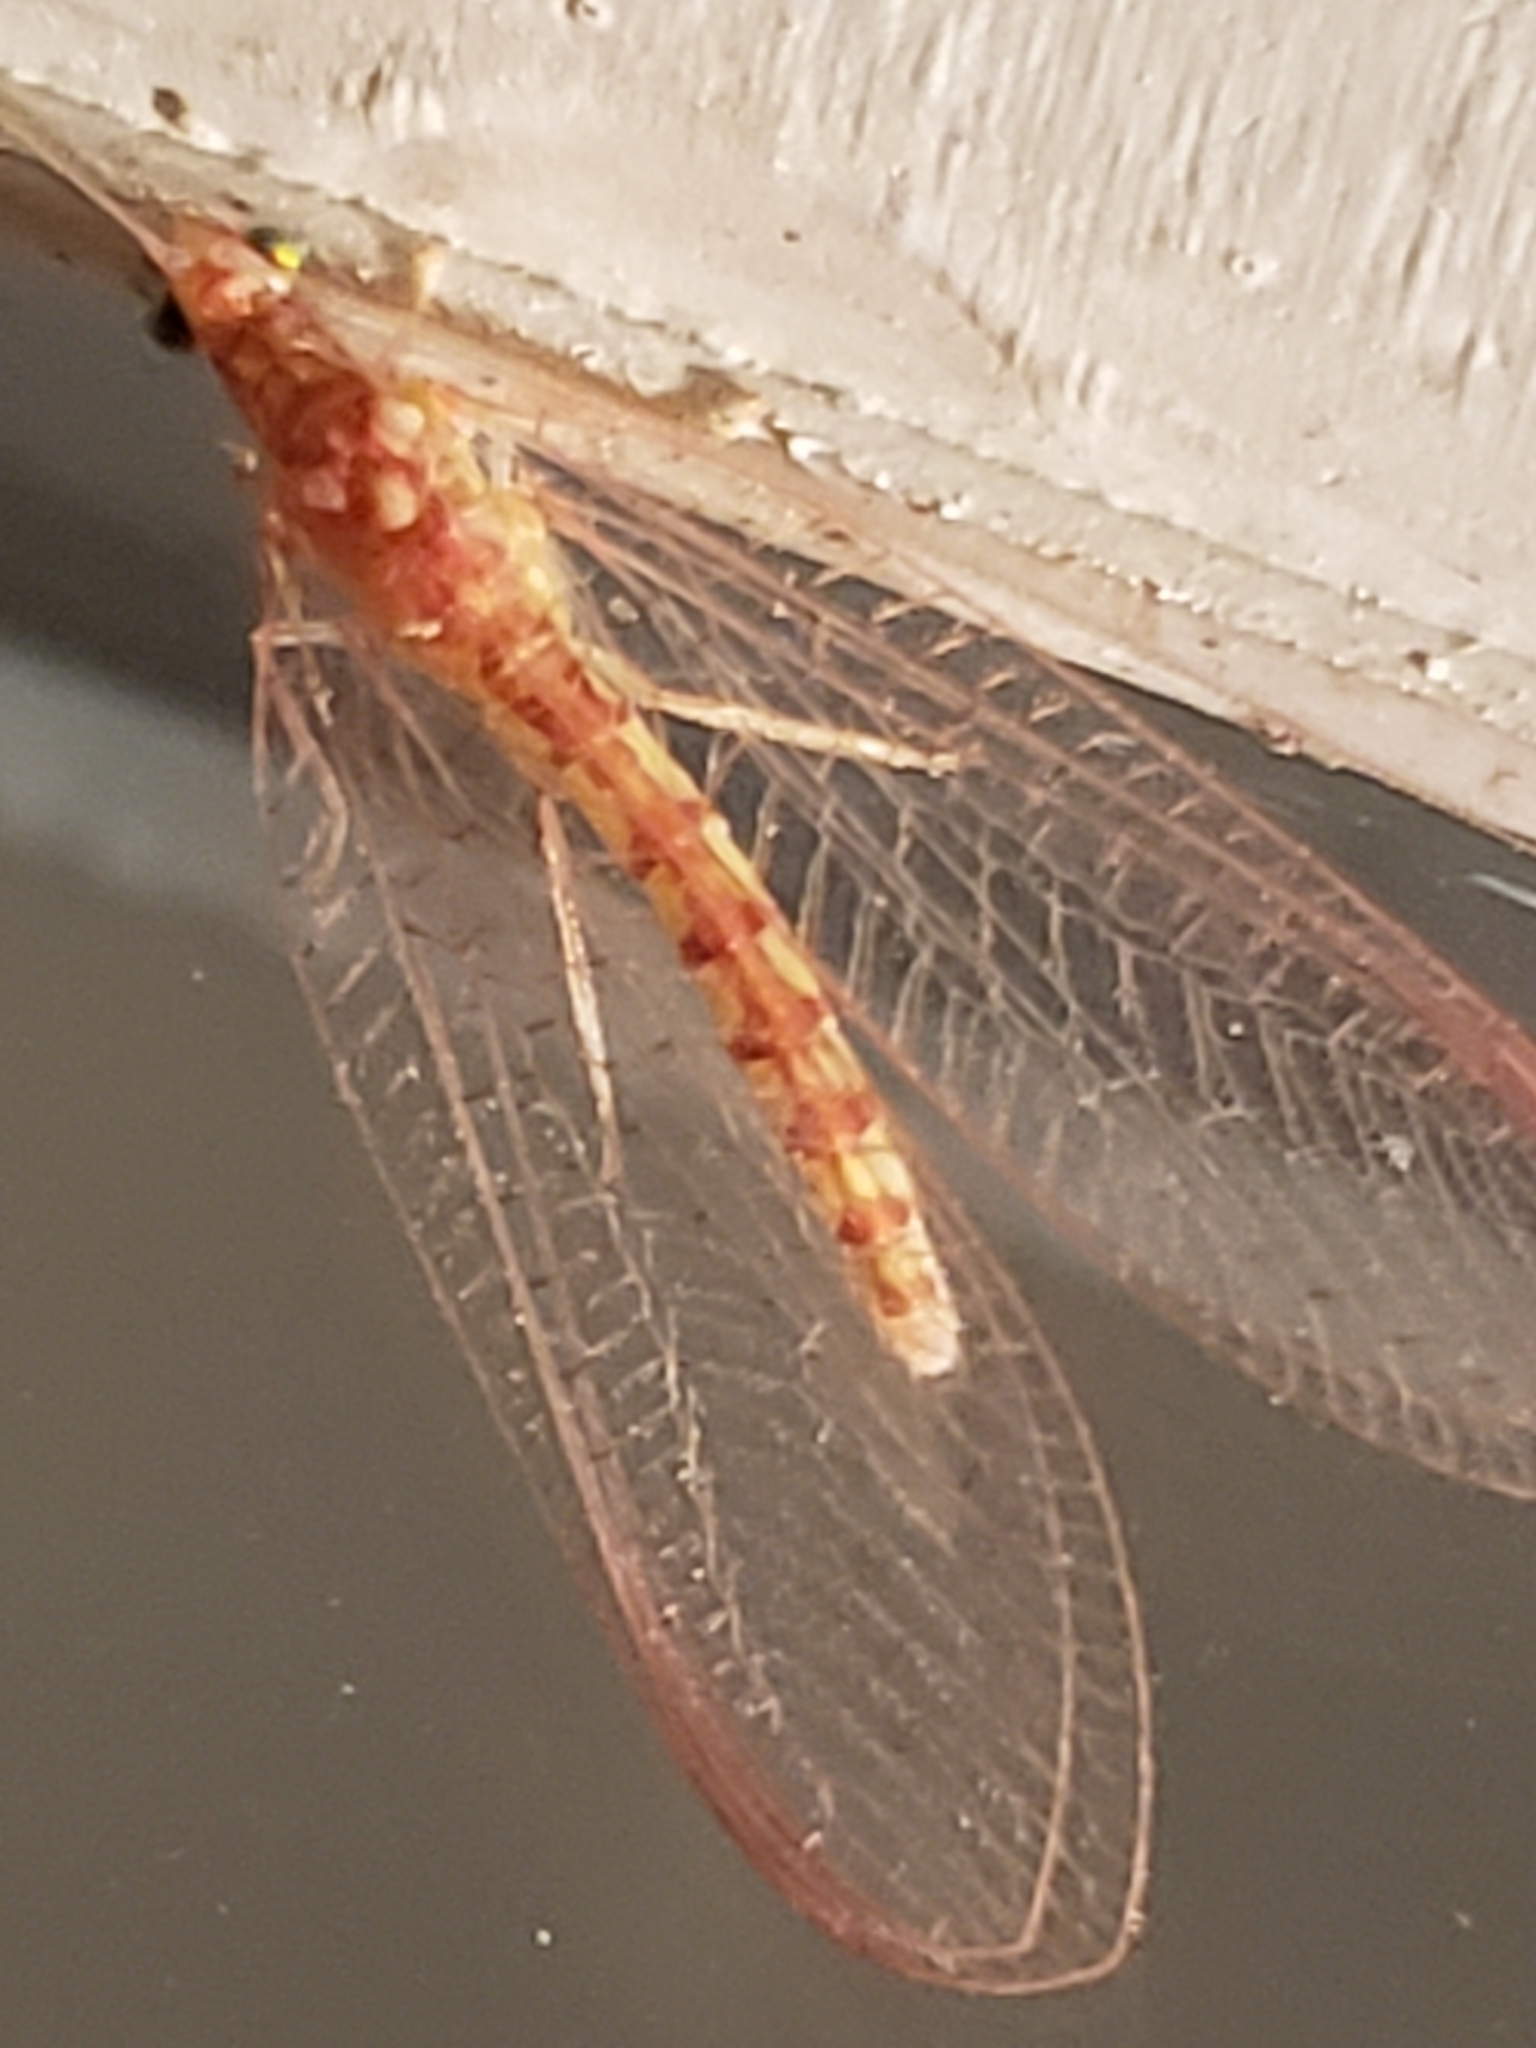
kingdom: Animalia
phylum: Arthropoda
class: Insecta
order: Neuroptera
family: Chrysopidae
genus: Chrysoperla
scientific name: Chrysoperla
